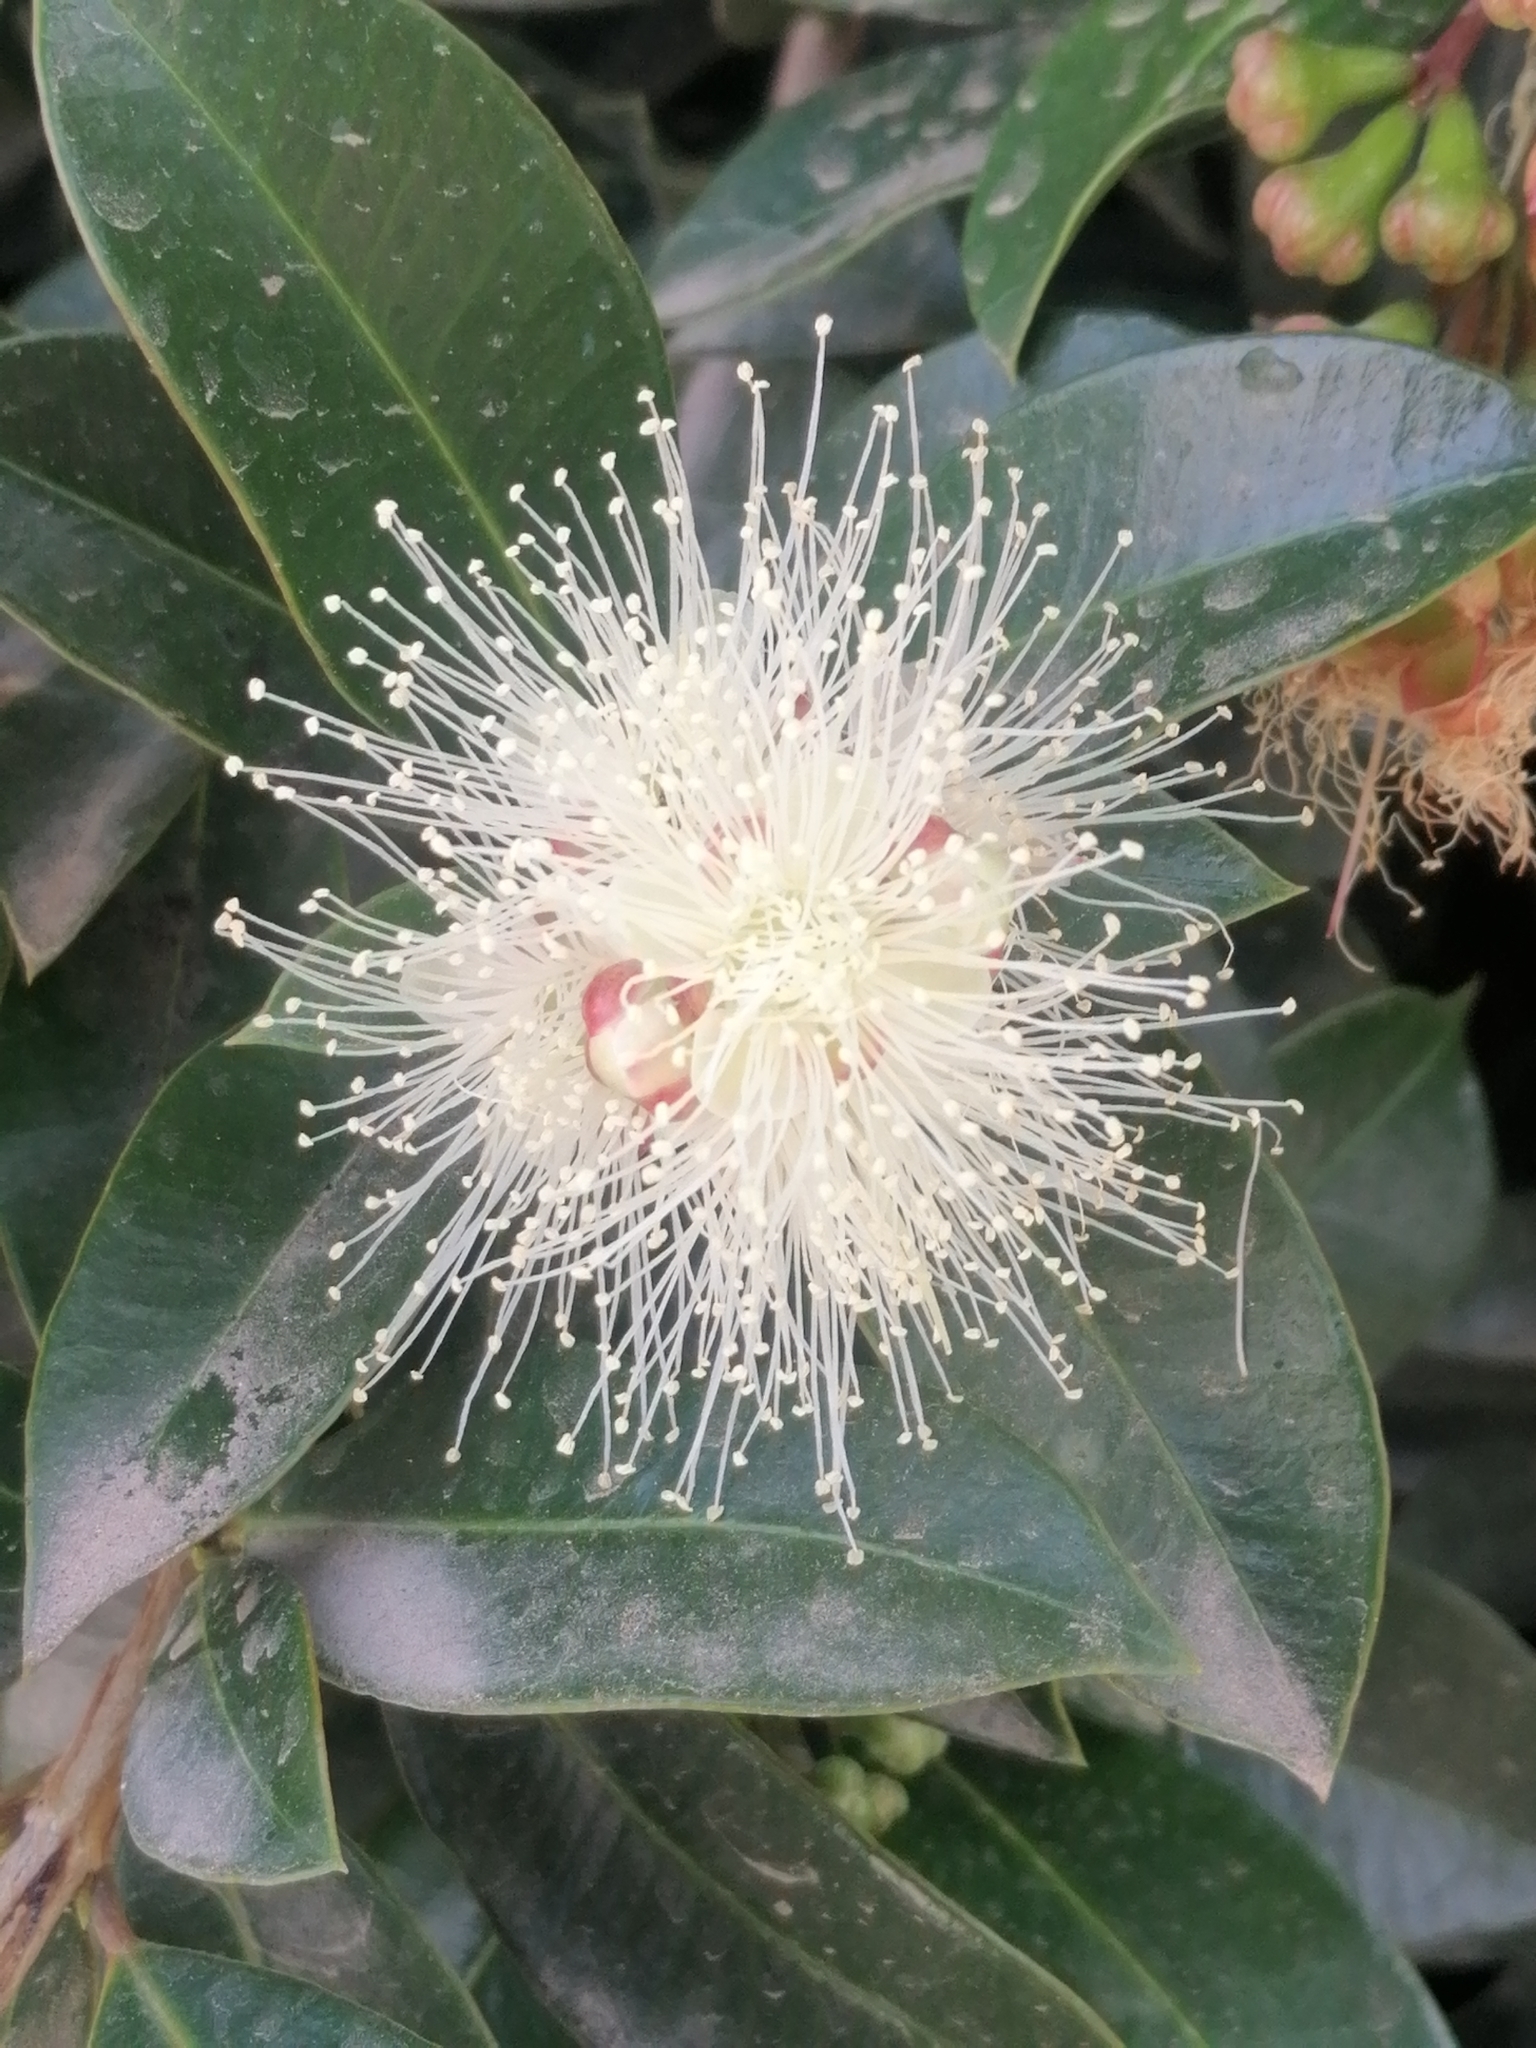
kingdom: Plantae
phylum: Tracheophyta
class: Magnoliopsida
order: Myrtales
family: Myrtaceae
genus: Syzygium
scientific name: Syzygium paniculatum
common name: Magenta lilly-pilly
